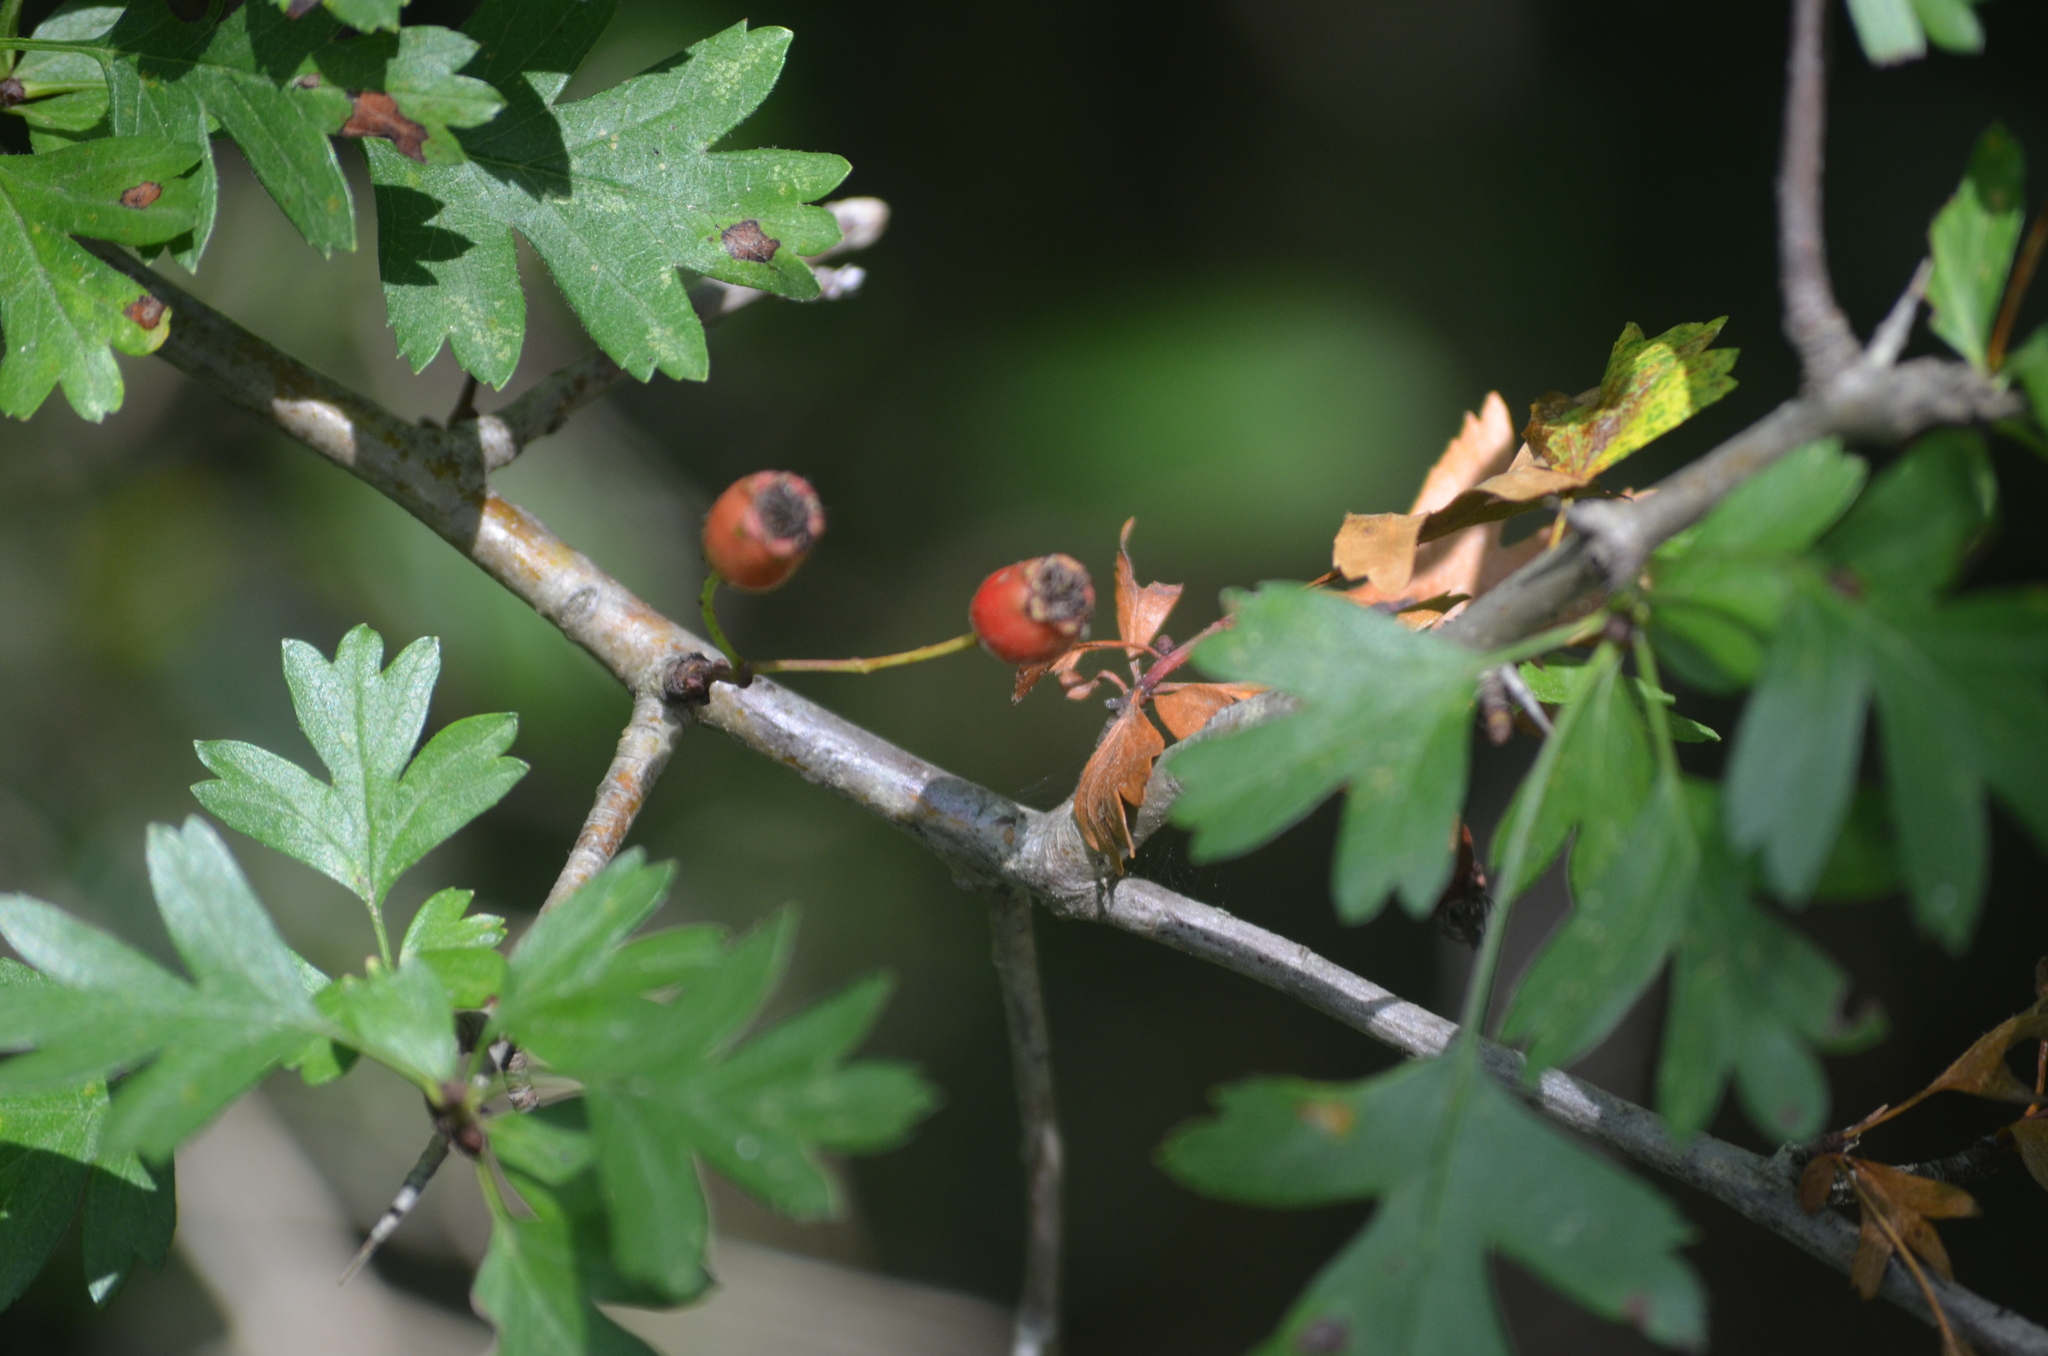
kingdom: Plantae
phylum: Tracheophyta
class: Magnoliopsida
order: Rosales
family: Rosaceae
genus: Crataegus
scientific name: Crataegus monogyna
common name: Hawthorn
